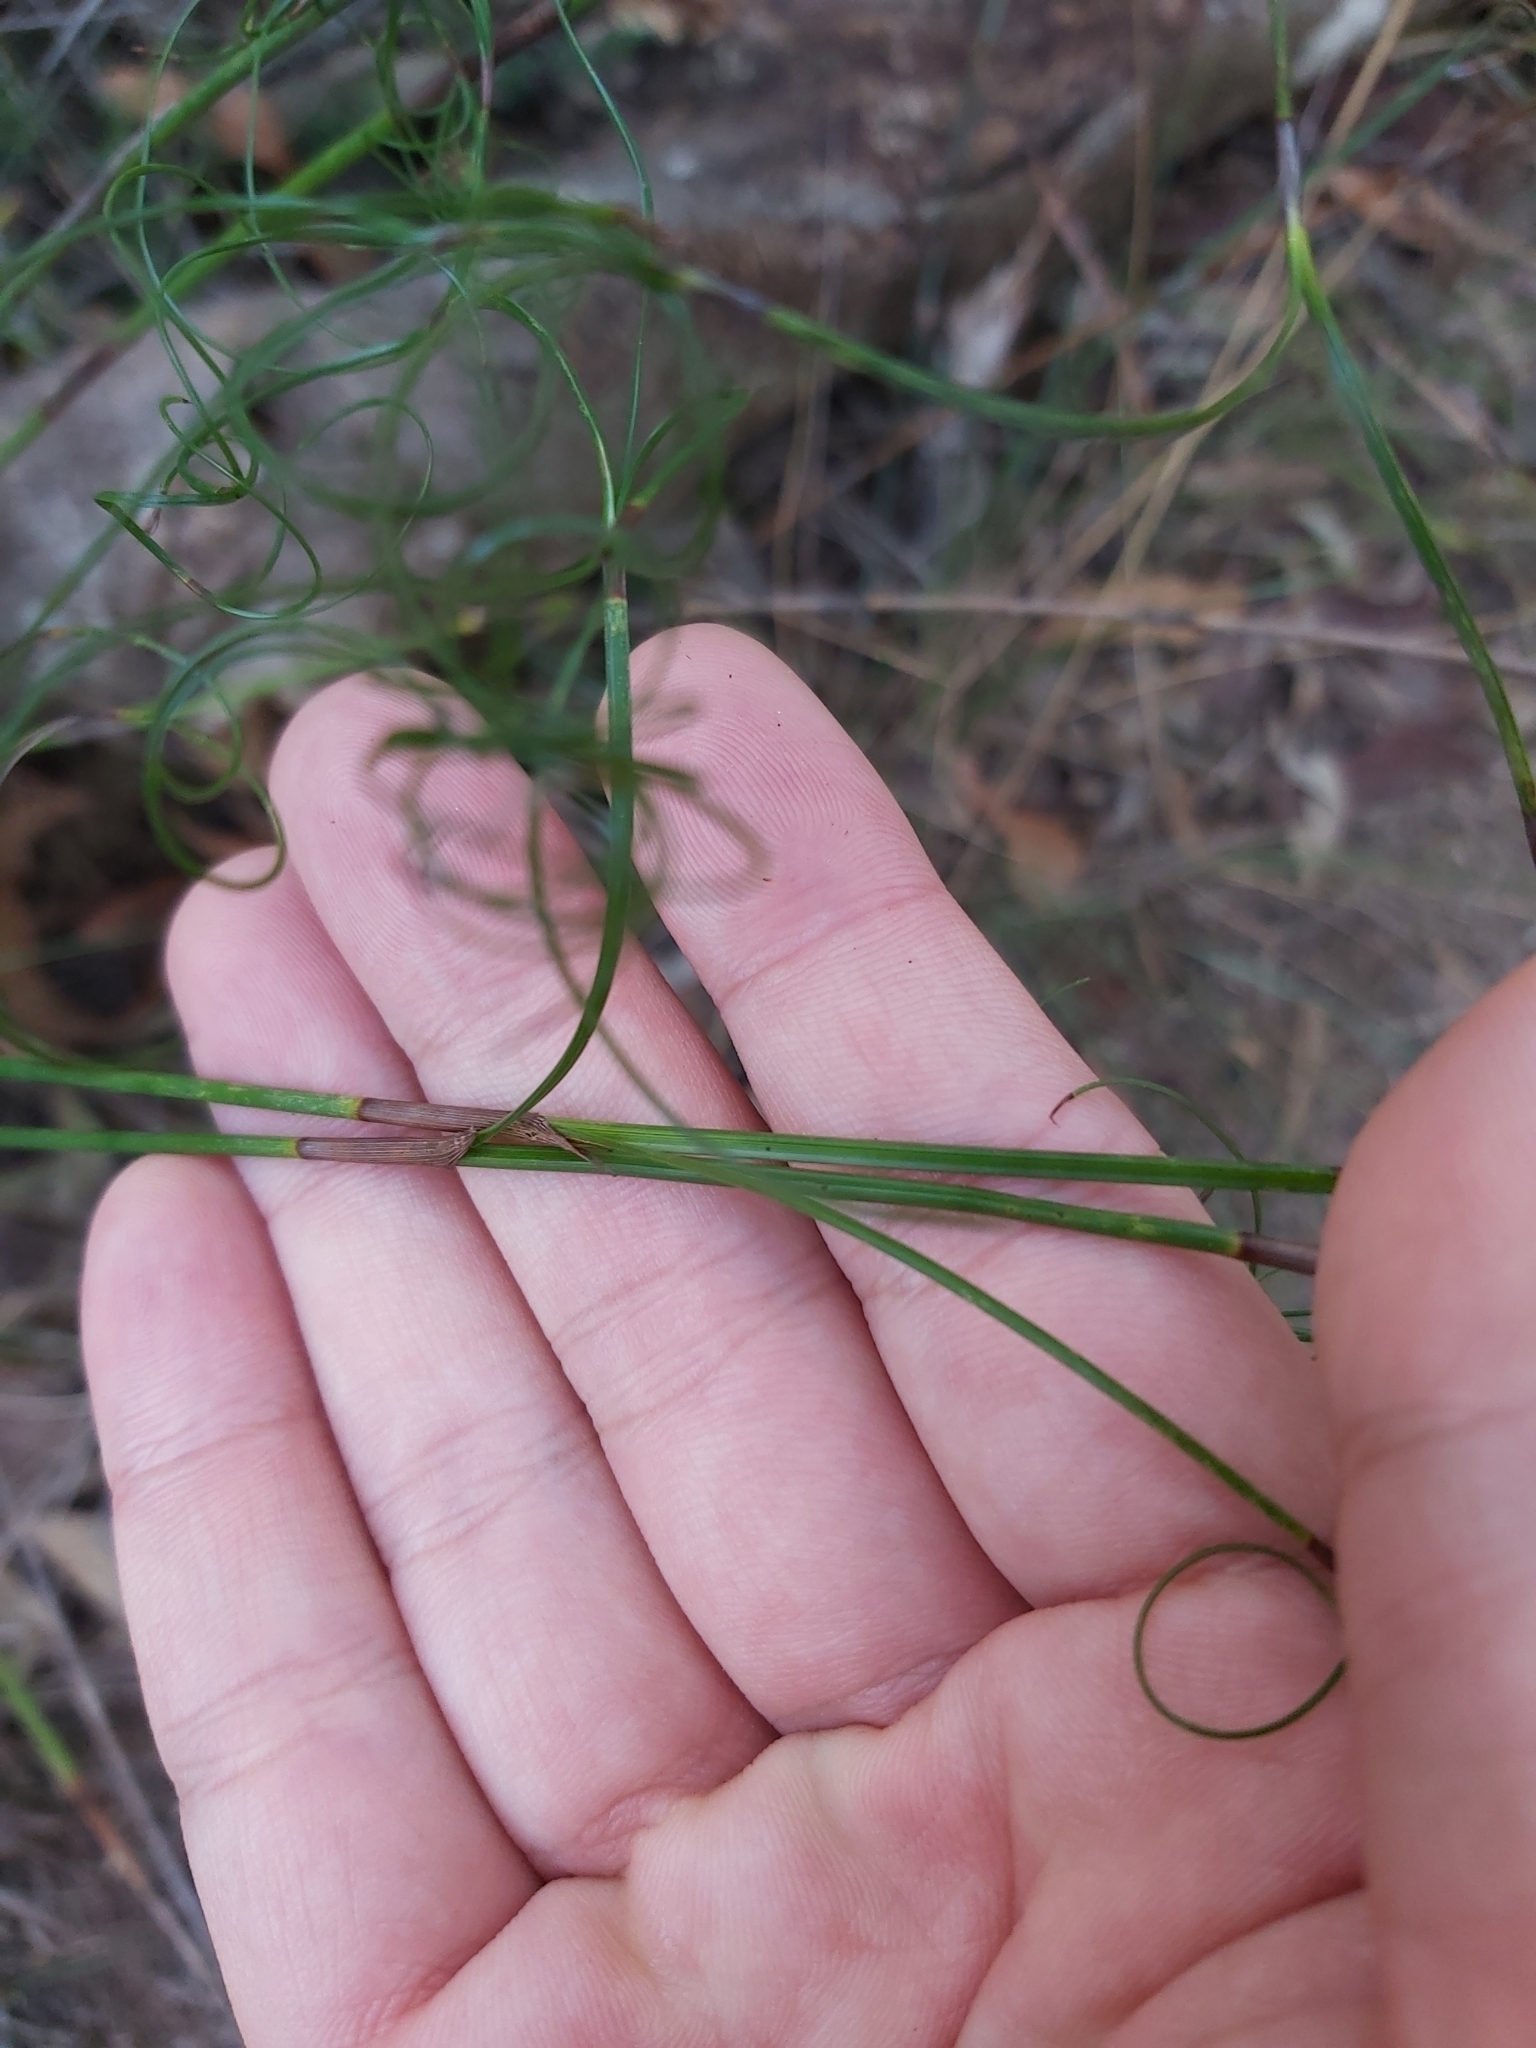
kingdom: Plantae
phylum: Tracheophyta
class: Liliopsida
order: Poales
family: Cyperaceae
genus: Caustis
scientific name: Caustis flexuosa
